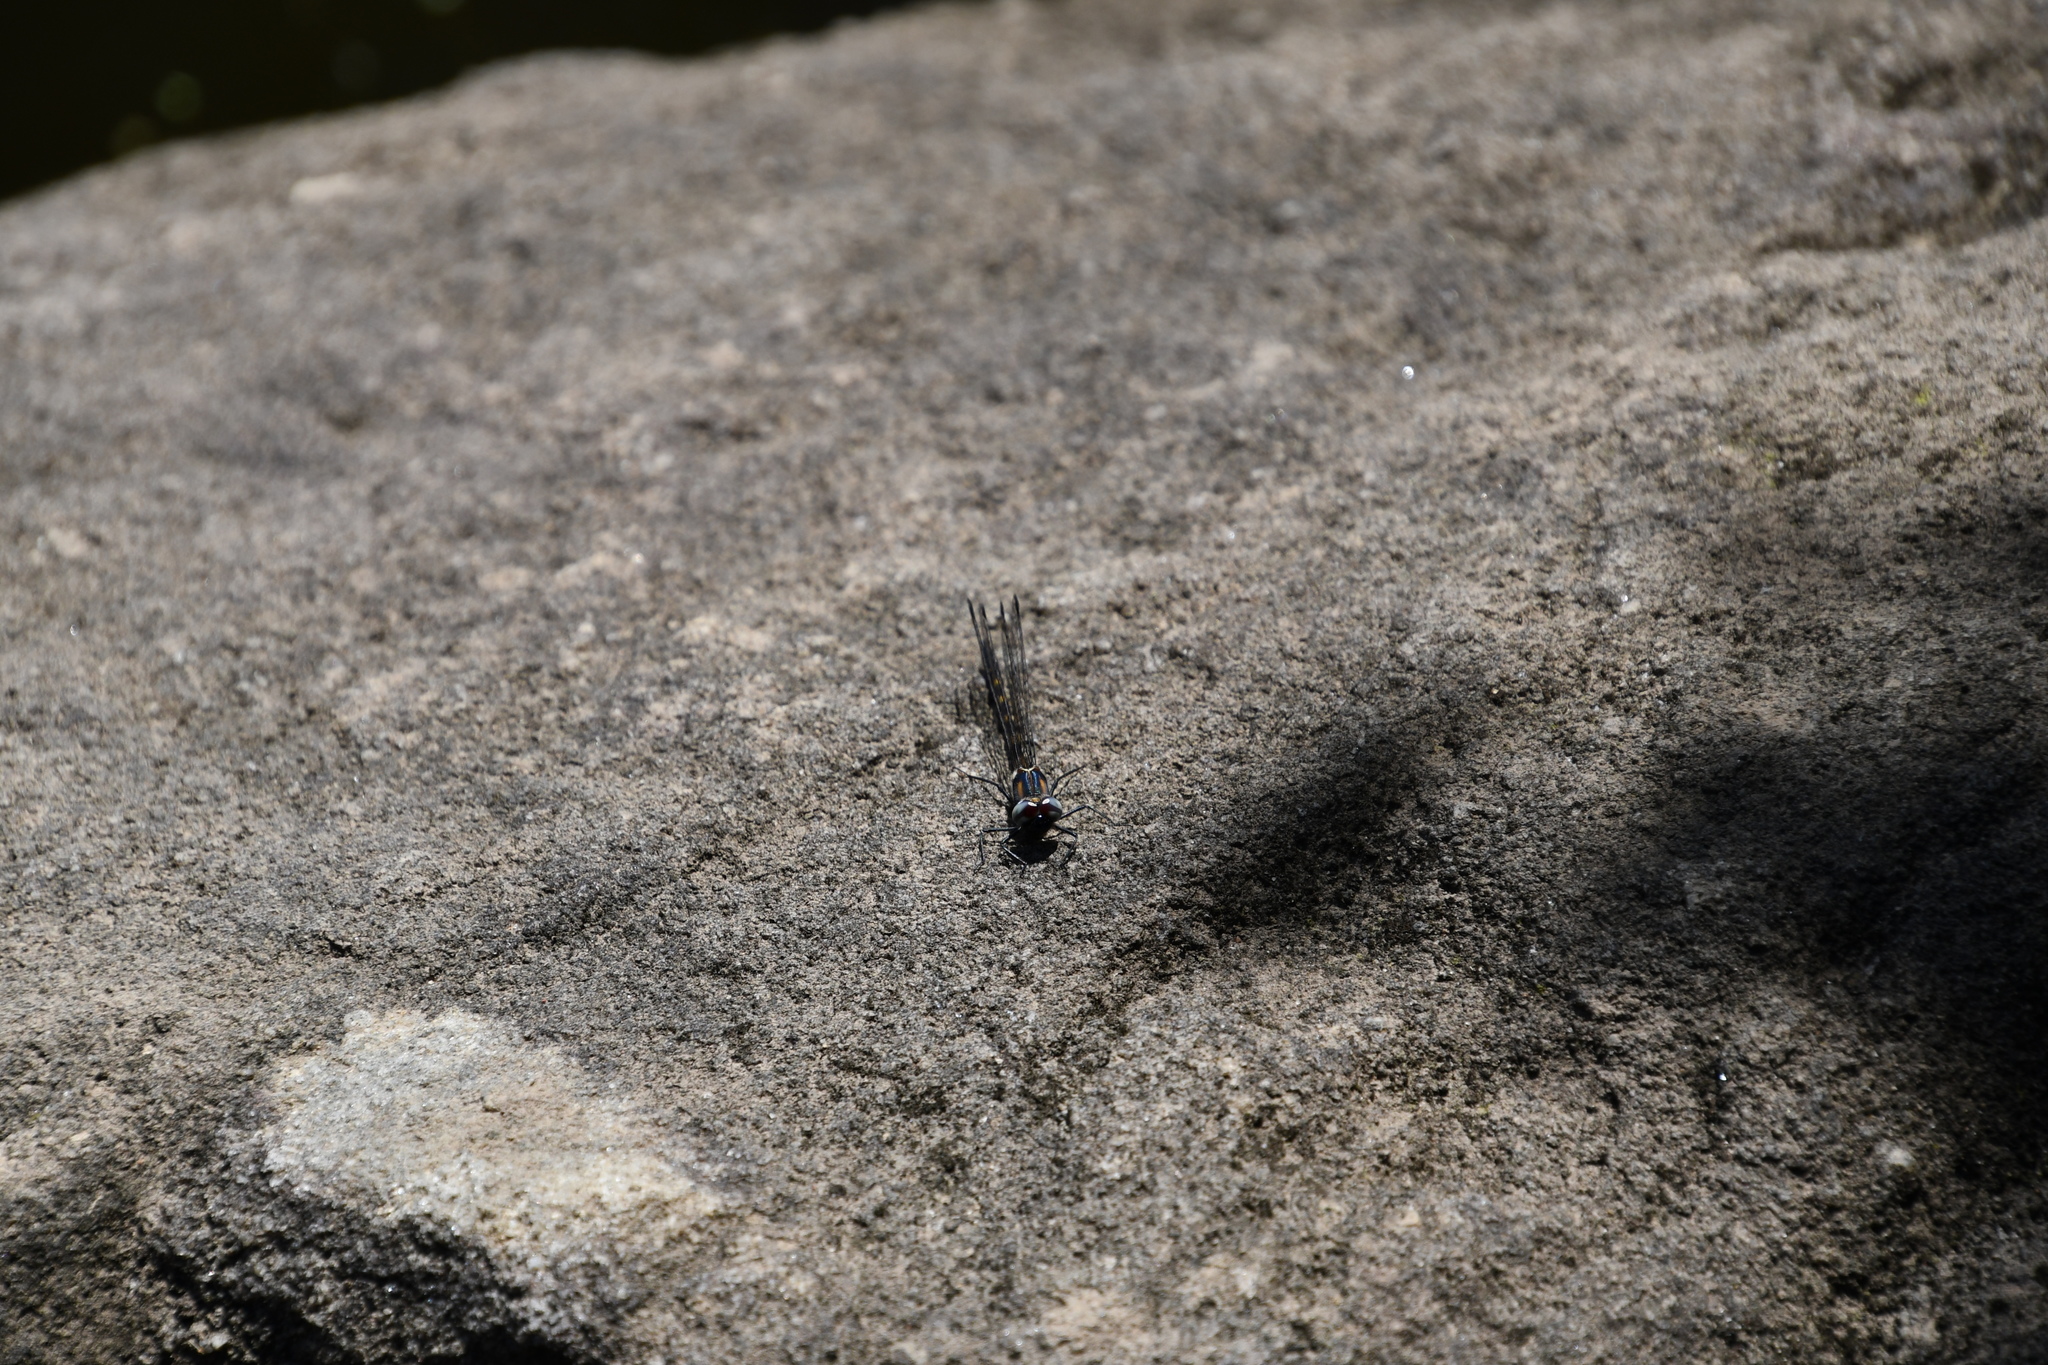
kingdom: Animalia
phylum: Arthropoda
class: Insecta
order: Odonata
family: Corduliidae
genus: Cordulephya
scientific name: Cordulephya pygmaea
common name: Common shutwing
